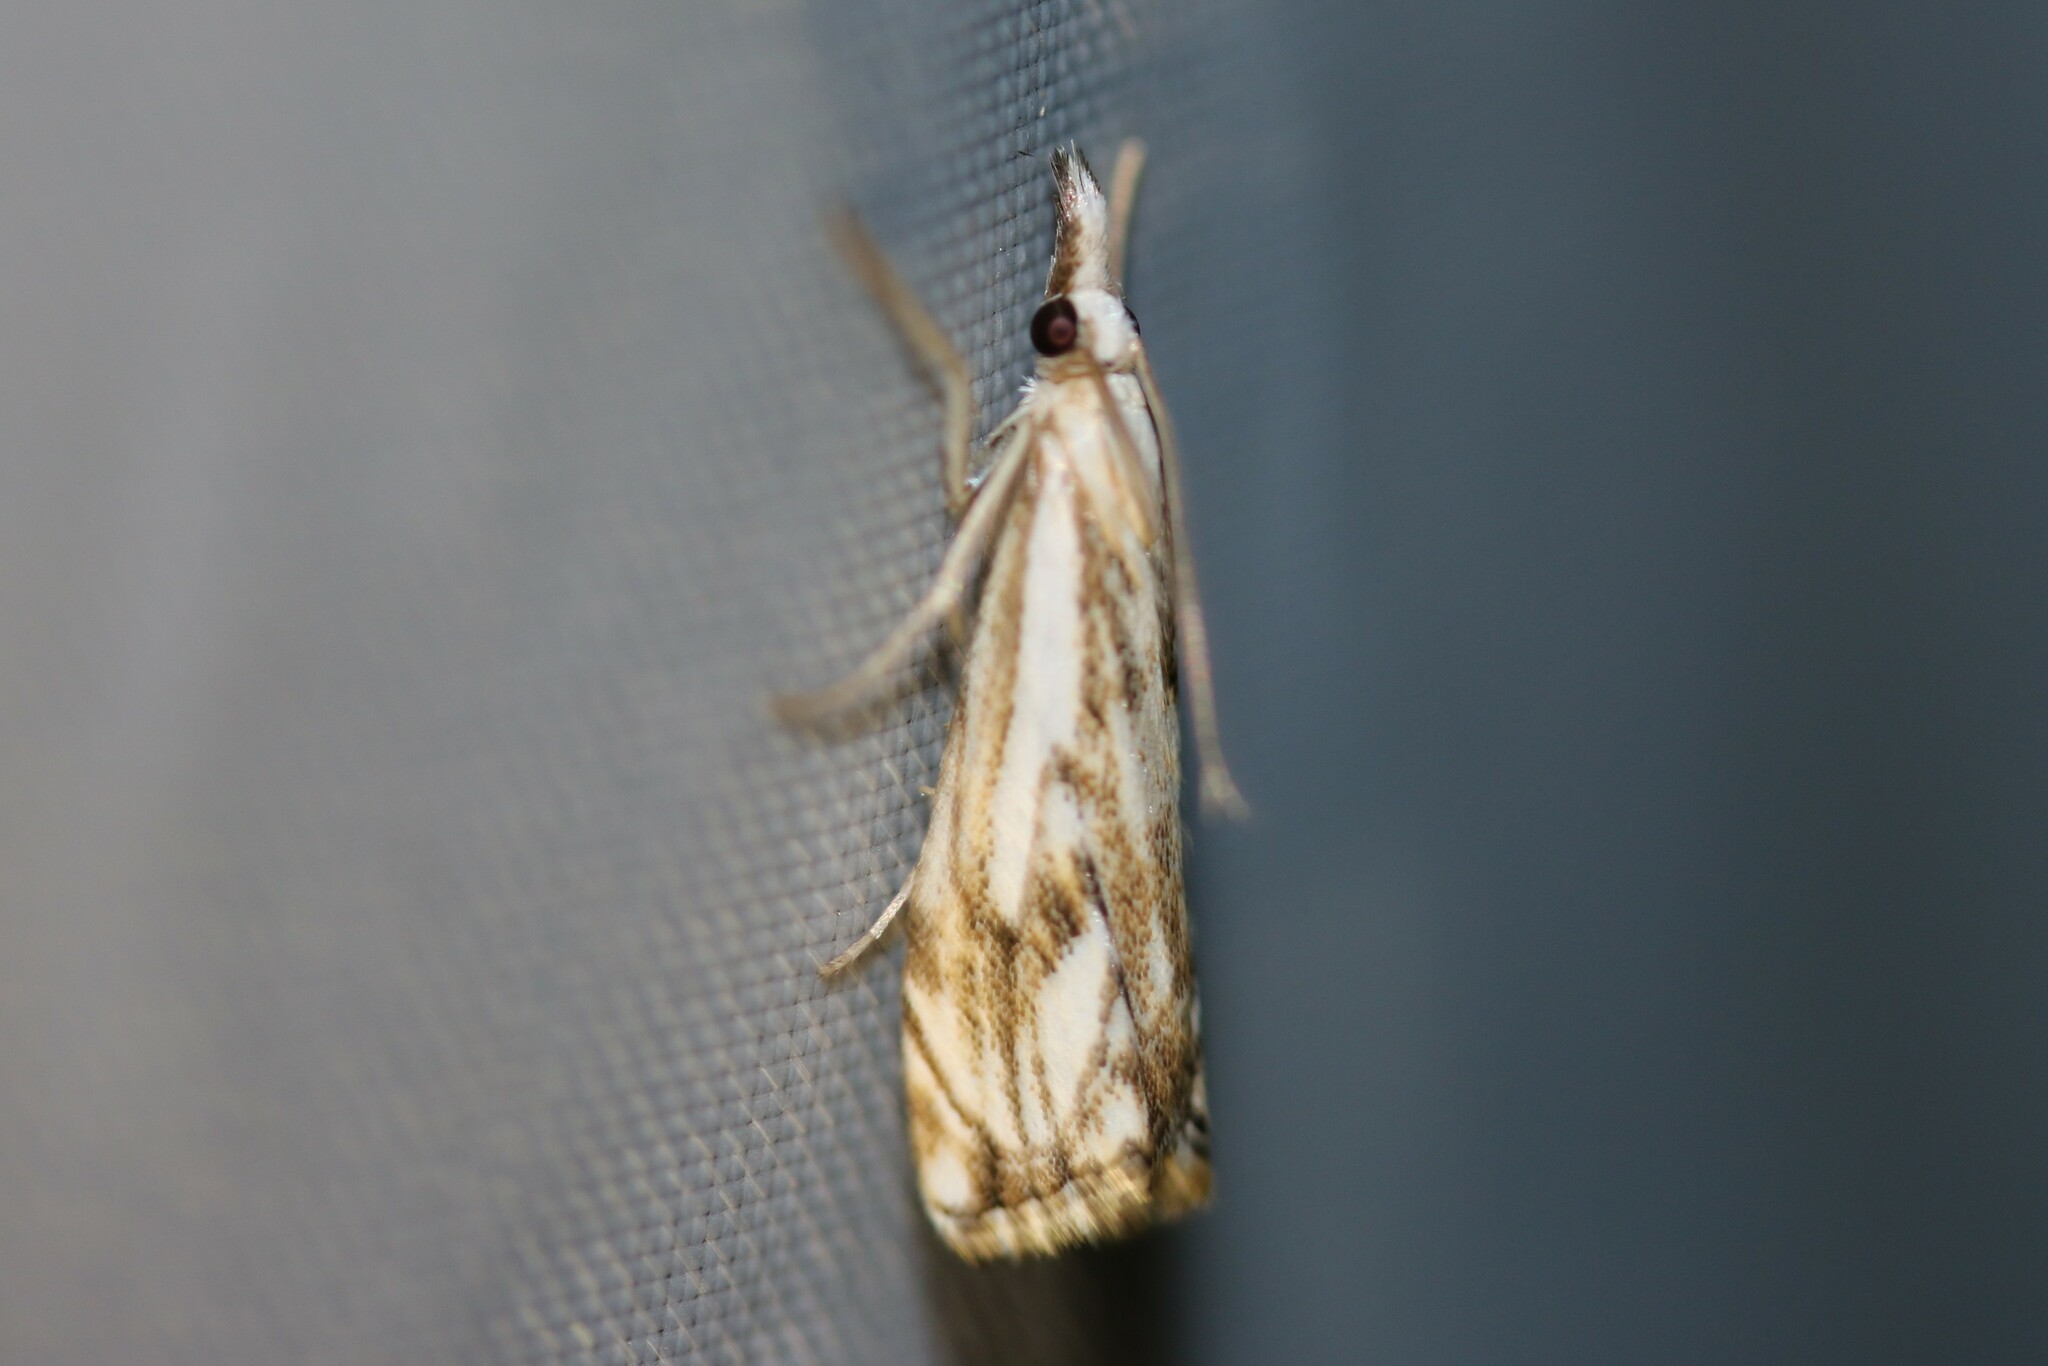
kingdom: Animalia
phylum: Arthropoda
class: Insecta
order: Lepidoptera
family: Crambidae
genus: Catoptria
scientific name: Catoptria falsella
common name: Chequered grass-veneer
